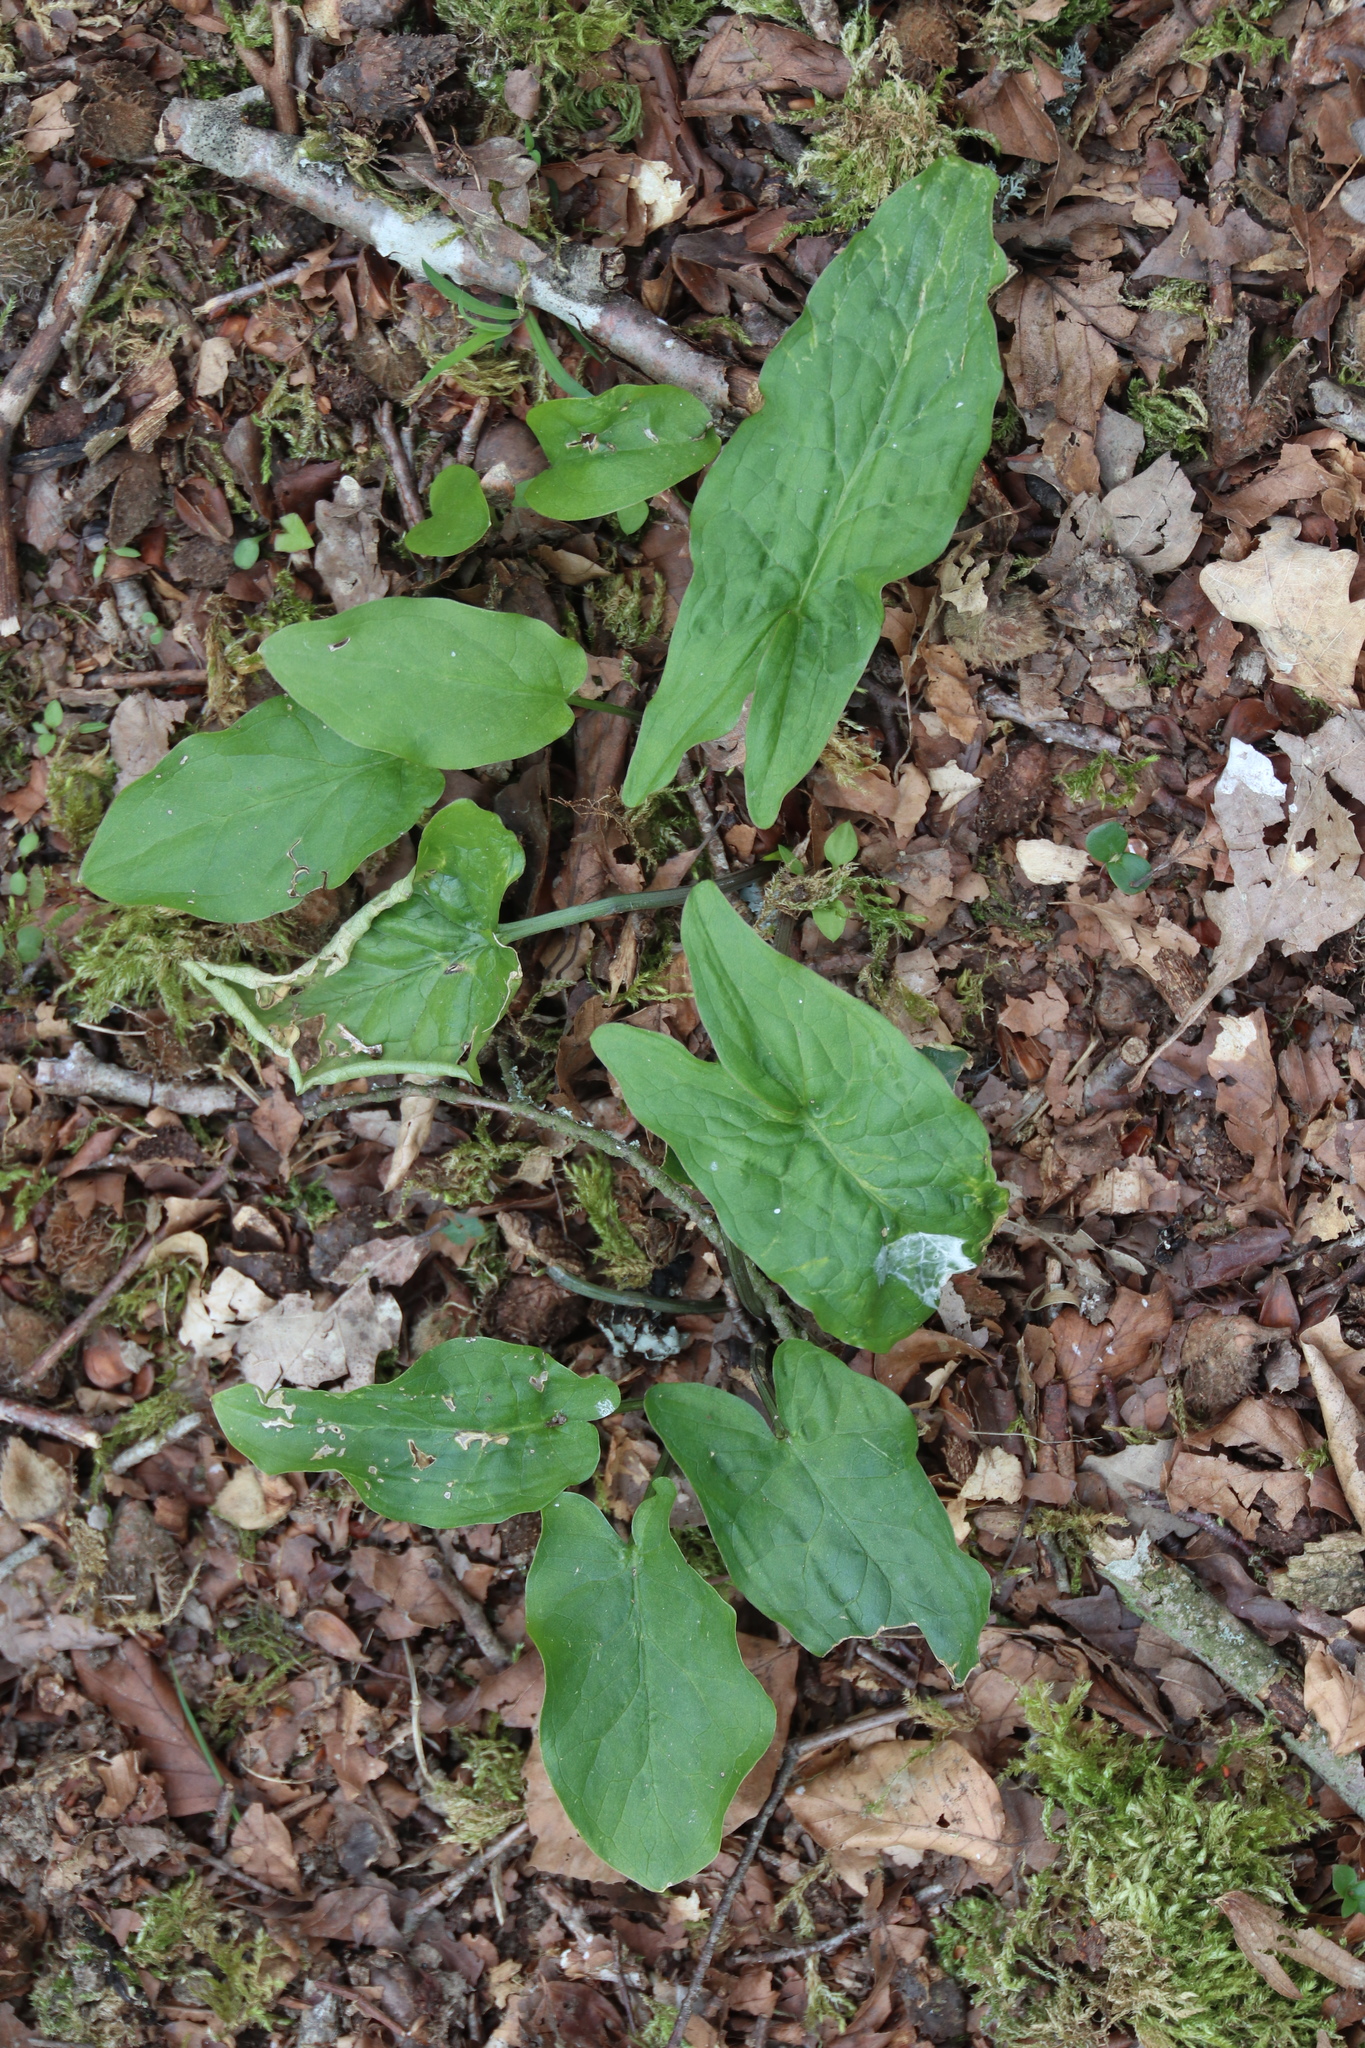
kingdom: Plantae
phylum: Tracheophyta
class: Liliopsida
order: Alismatales
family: Araceae
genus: Arum
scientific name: Arum maculatum
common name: Lords-and-ladies
